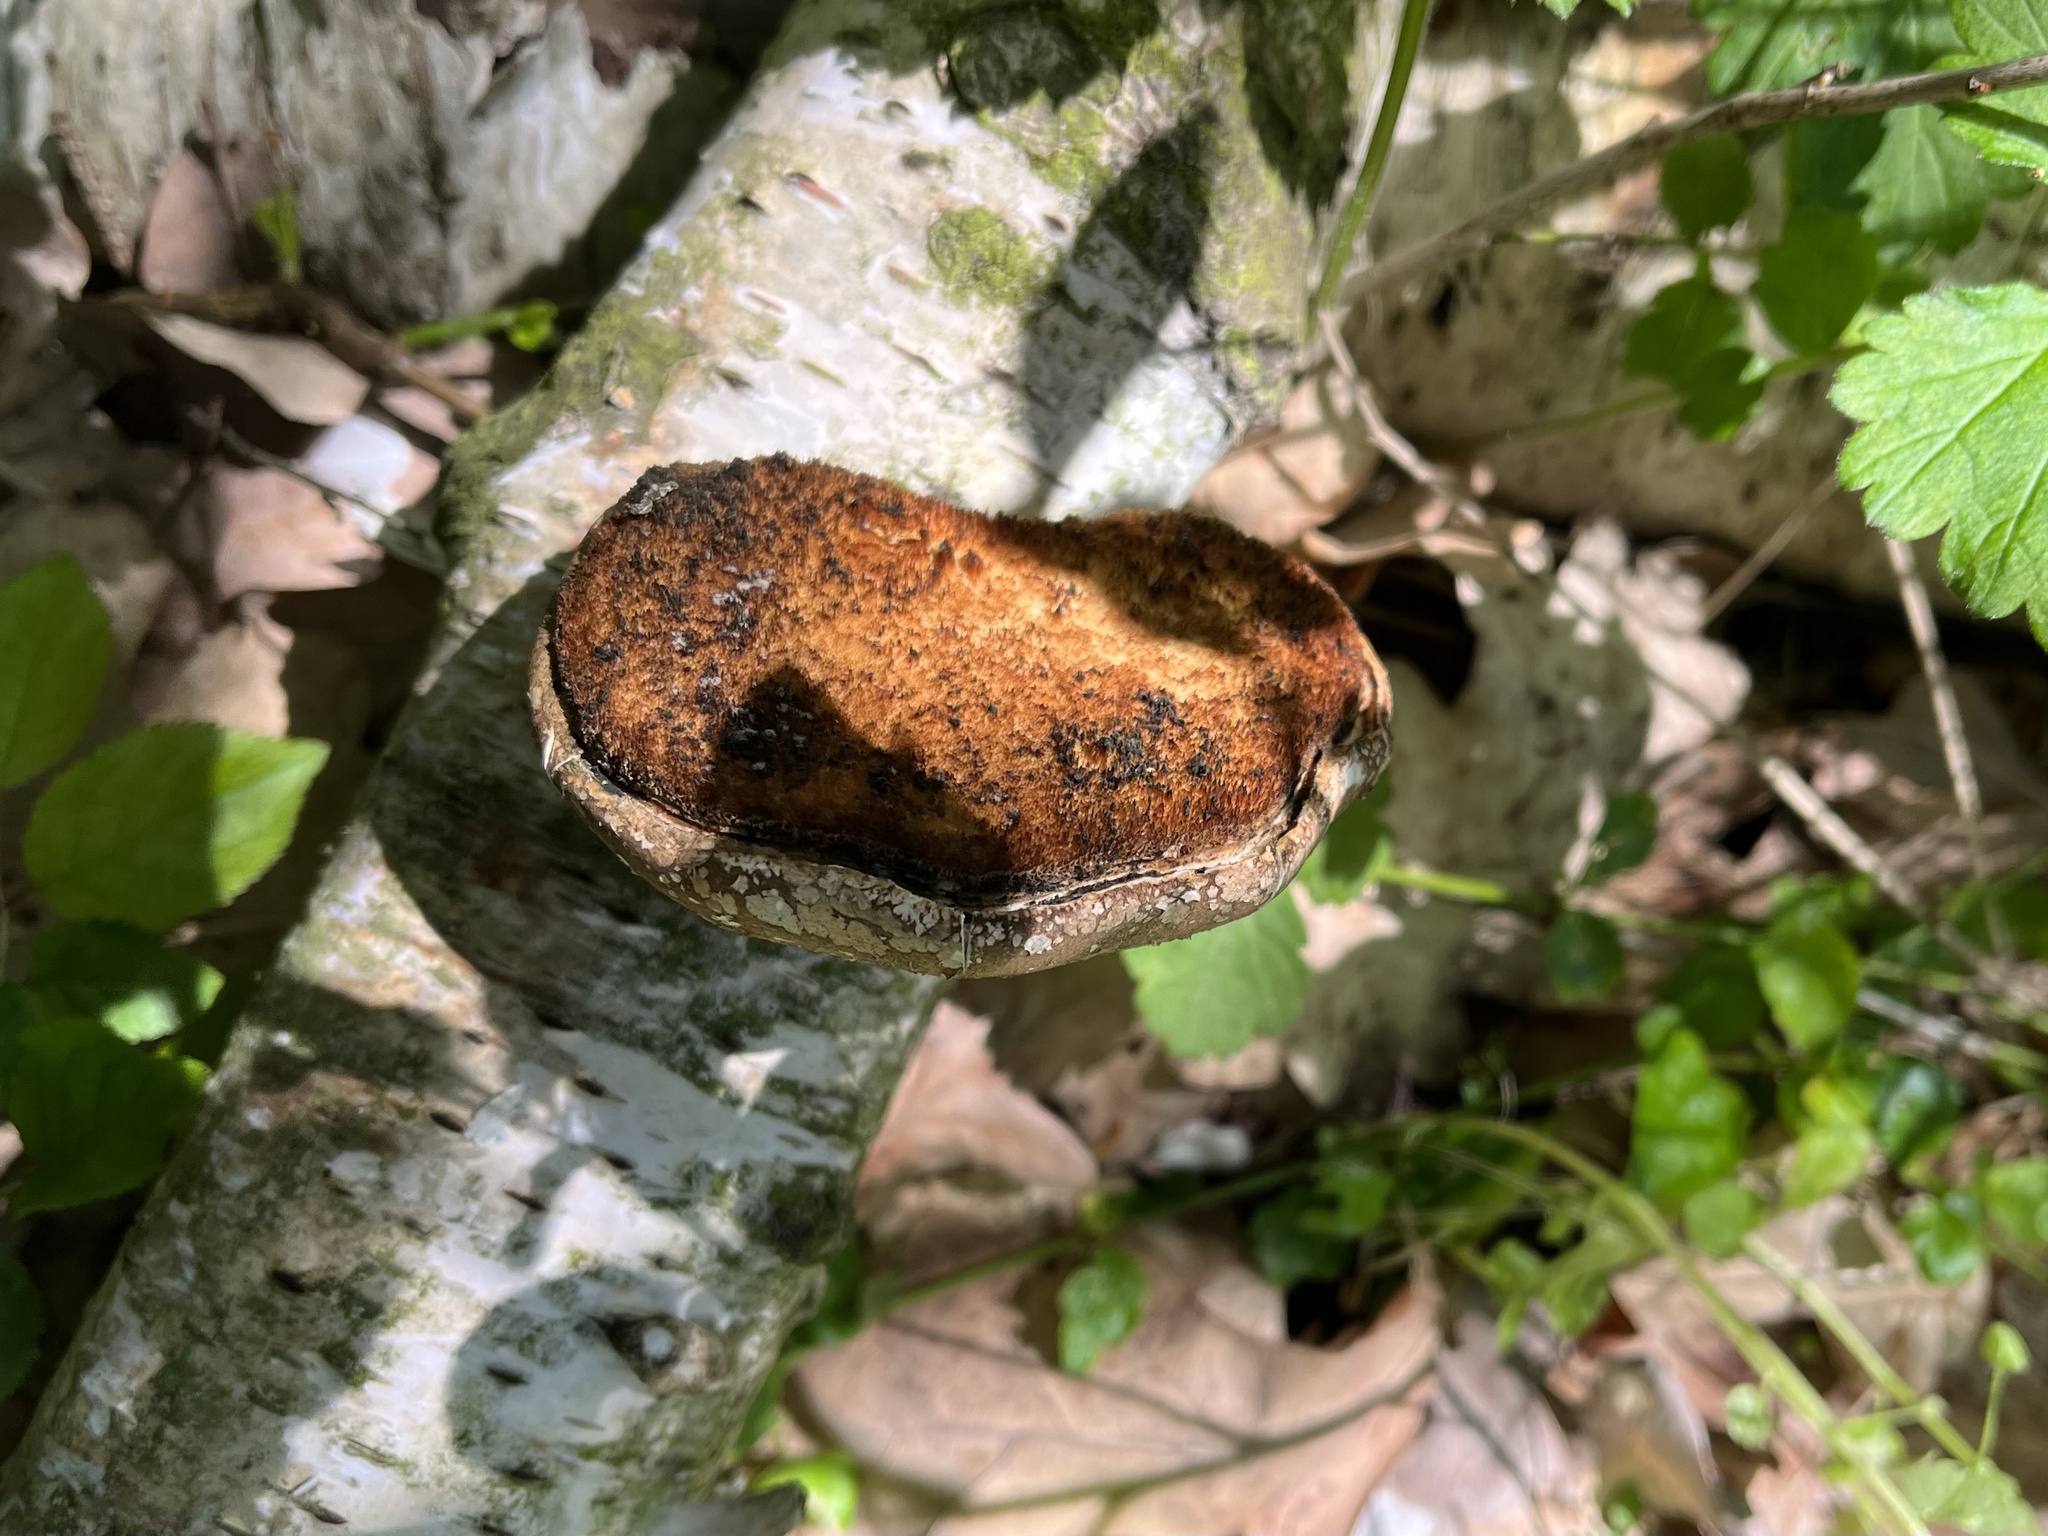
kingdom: Fungi
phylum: Basidiomycota
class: Agaricomycetes
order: Polyporales
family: Fomitopsidaceae
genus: Fomitopsis
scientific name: Fomitopsis betulina
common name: Birch polypore
